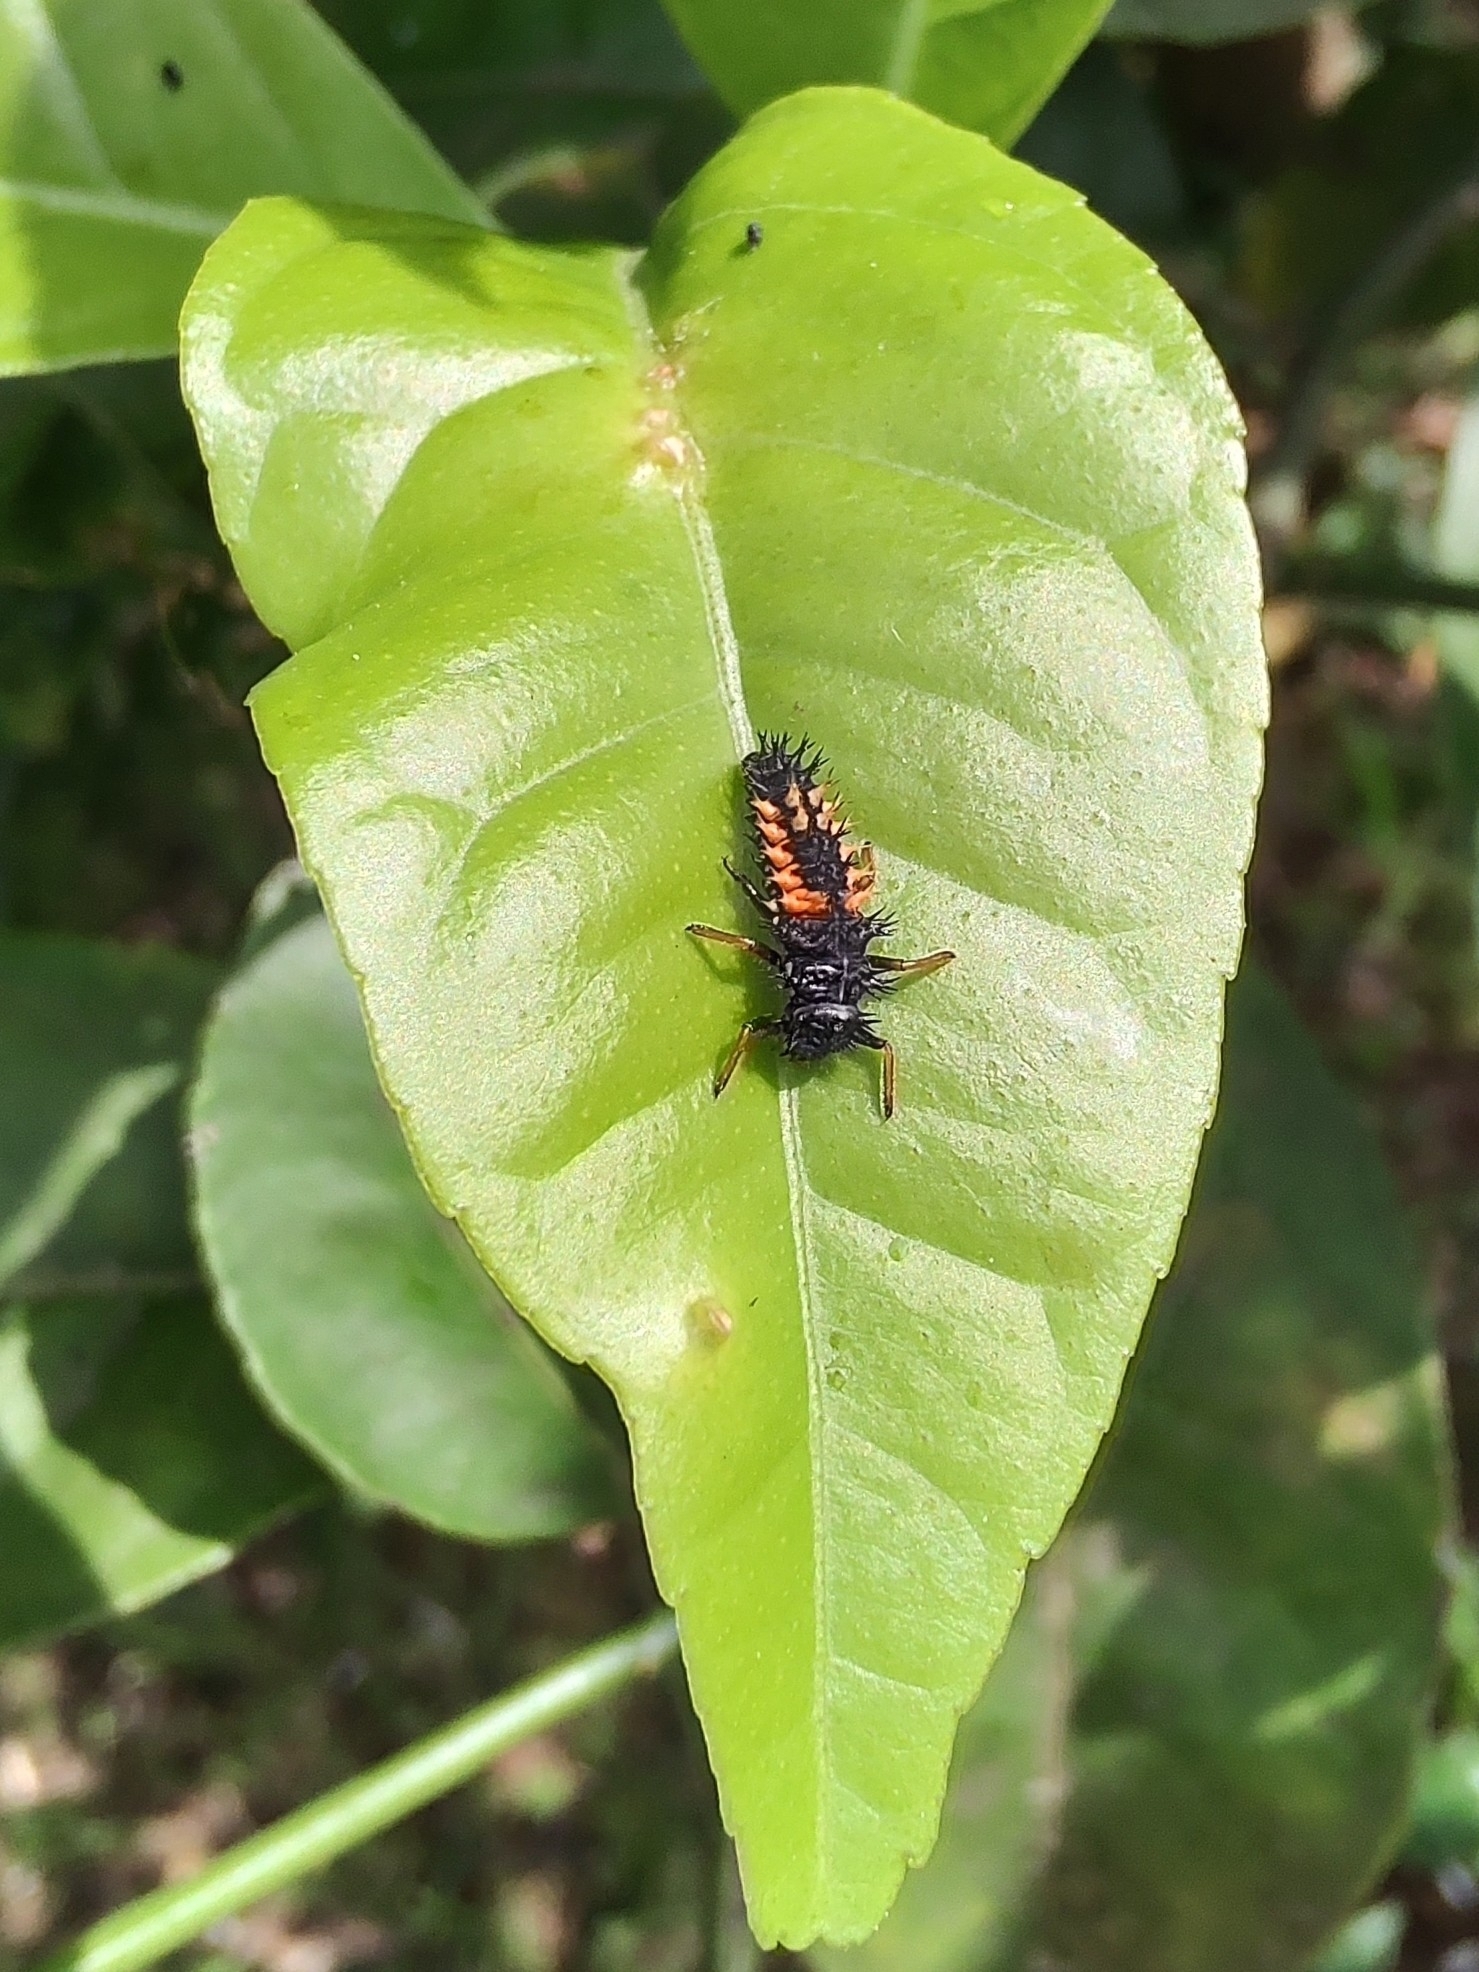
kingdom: Animalia
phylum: Arthropoda
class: Insecta
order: Coleoptera
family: Coccinellidae
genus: Harmonia
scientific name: Harmonia axyridis
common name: Harlequin ladybird
